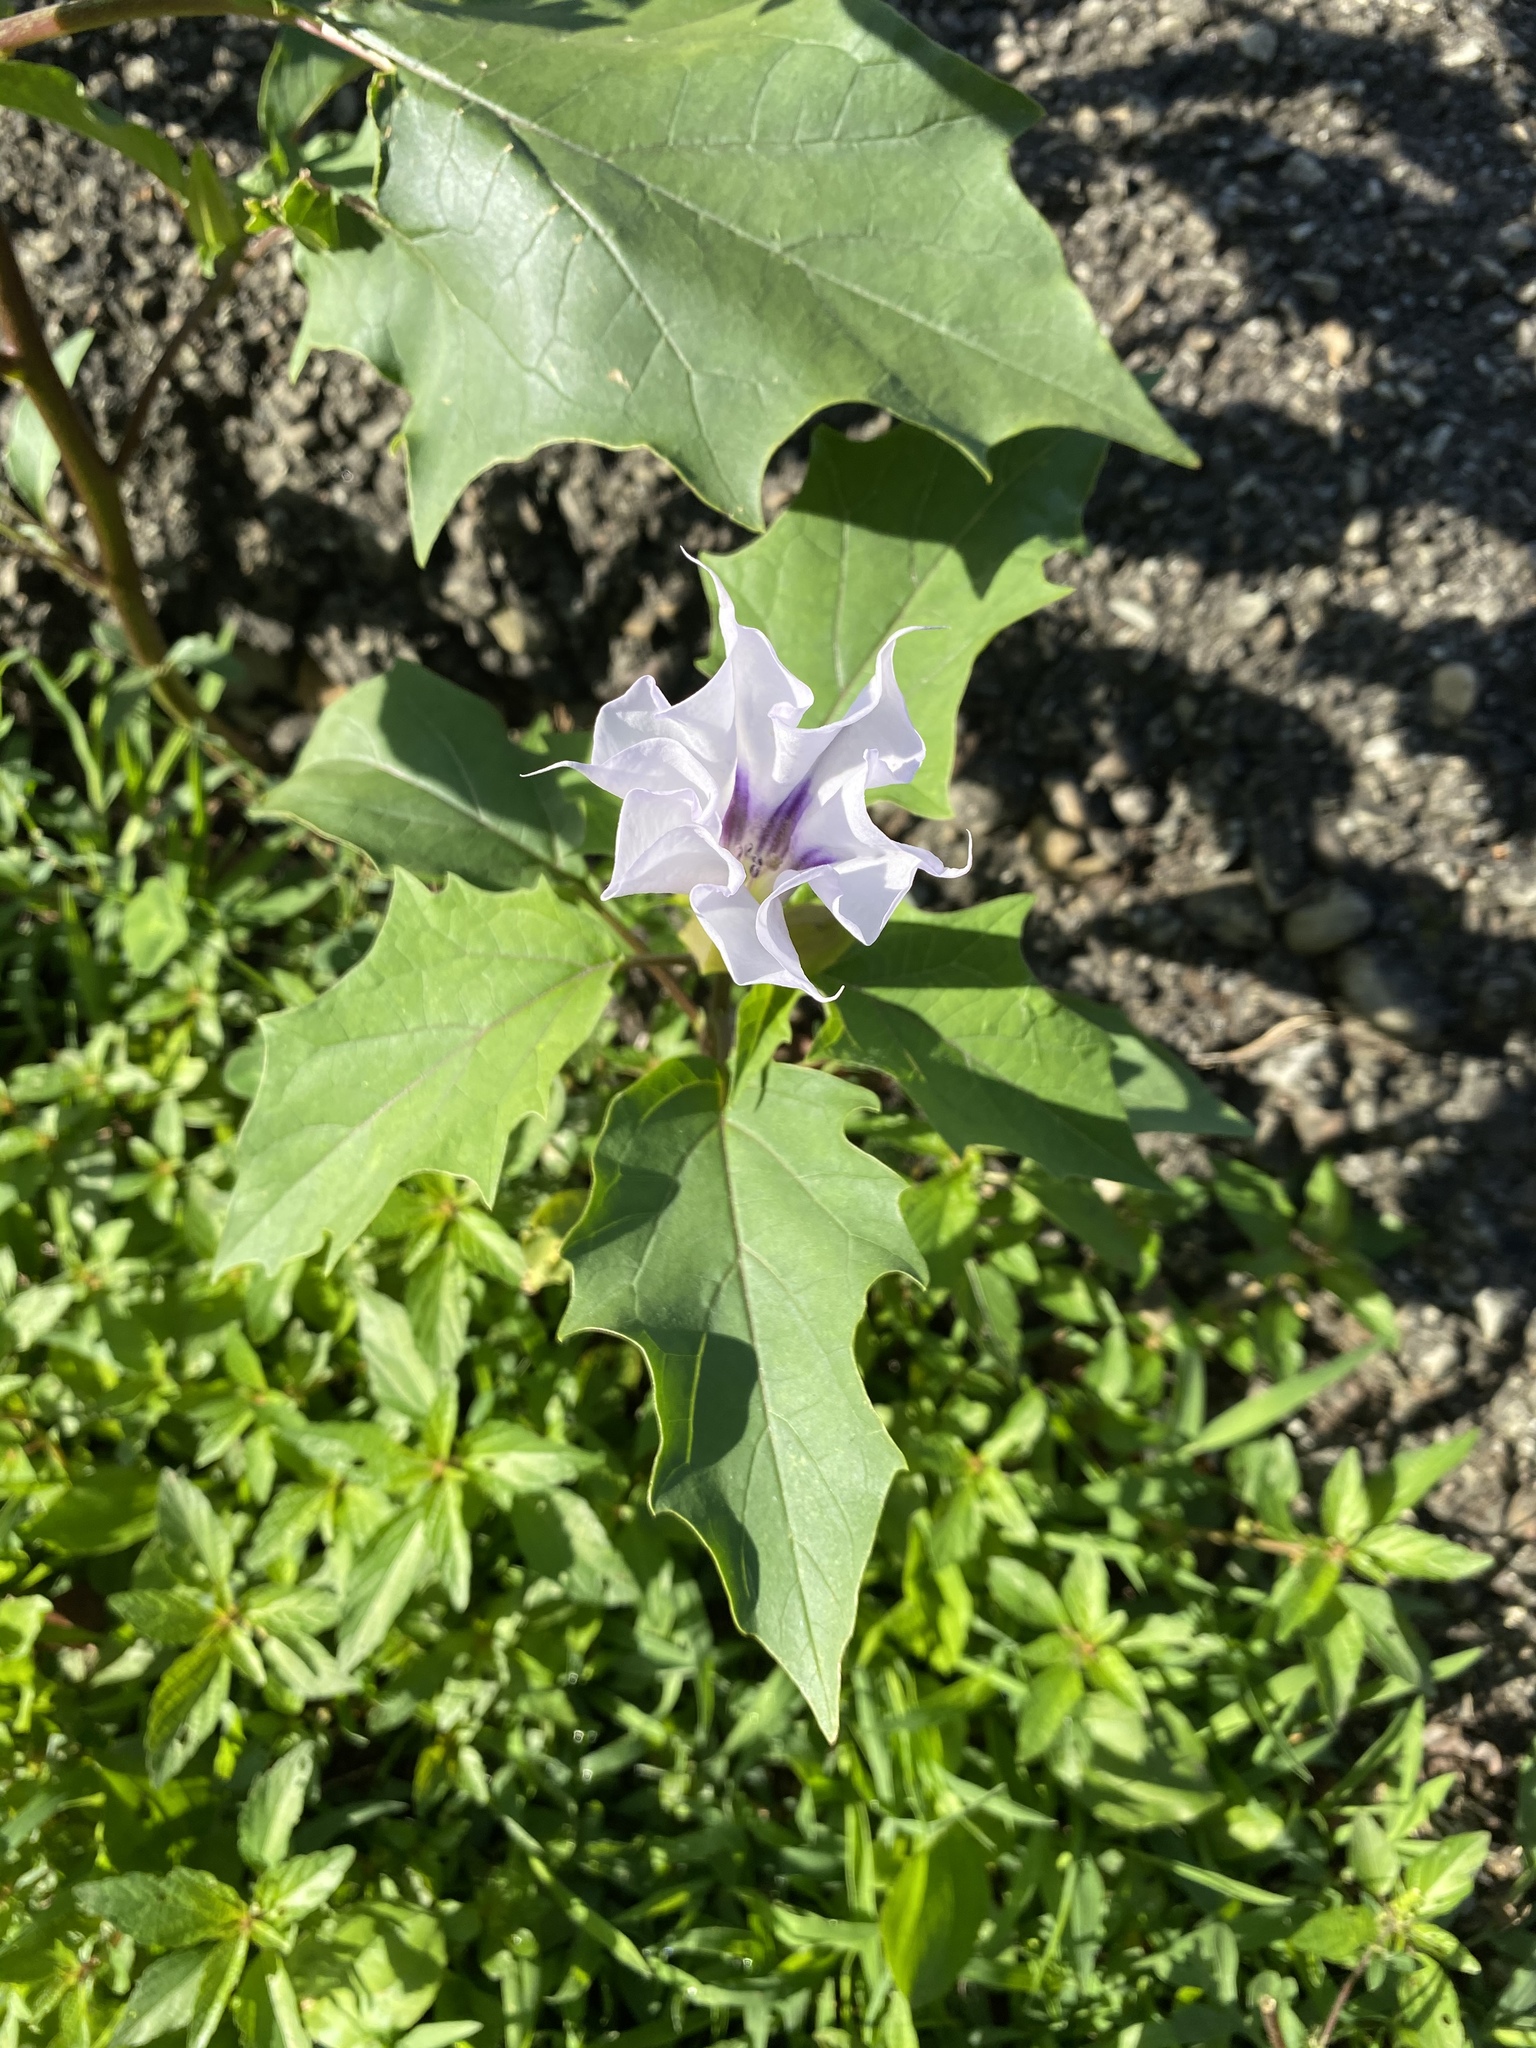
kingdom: Plantae
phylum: Tracheophyta
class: Magnoliopsida
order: Solanales
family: Solanaceae
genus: Datura
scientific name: Datura stramonium
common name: Thorn-apple
